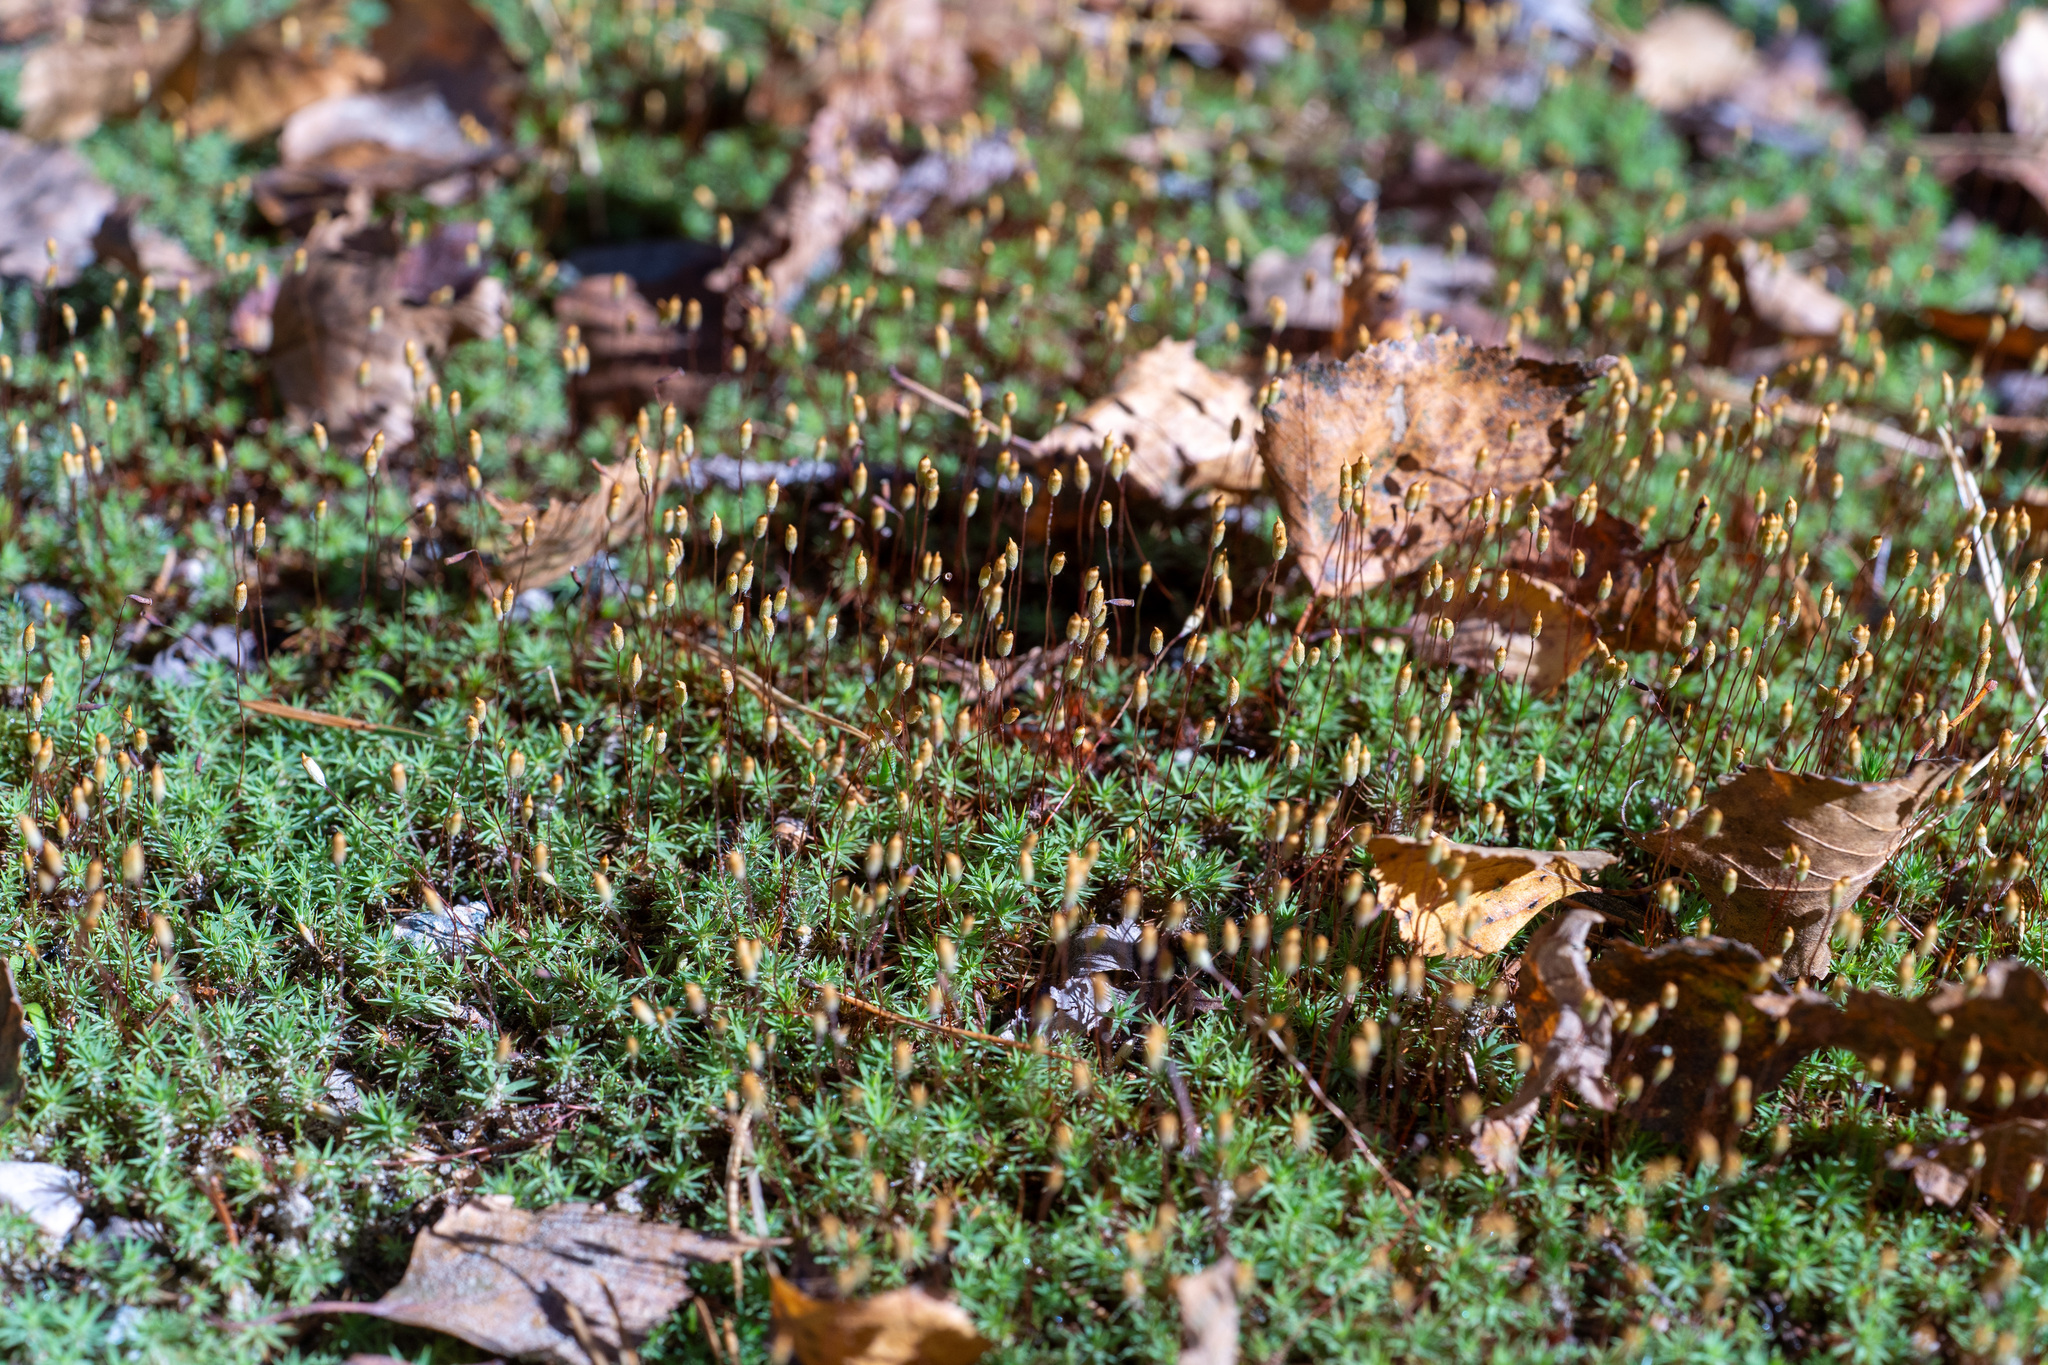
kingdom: Plantae
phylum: Bryophyta
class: Polytrichopsida
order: Polytrichales
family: Polytrichaceae
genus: Pogonatum
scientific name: Pogonatum urnigerum
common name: Urn hair moss
